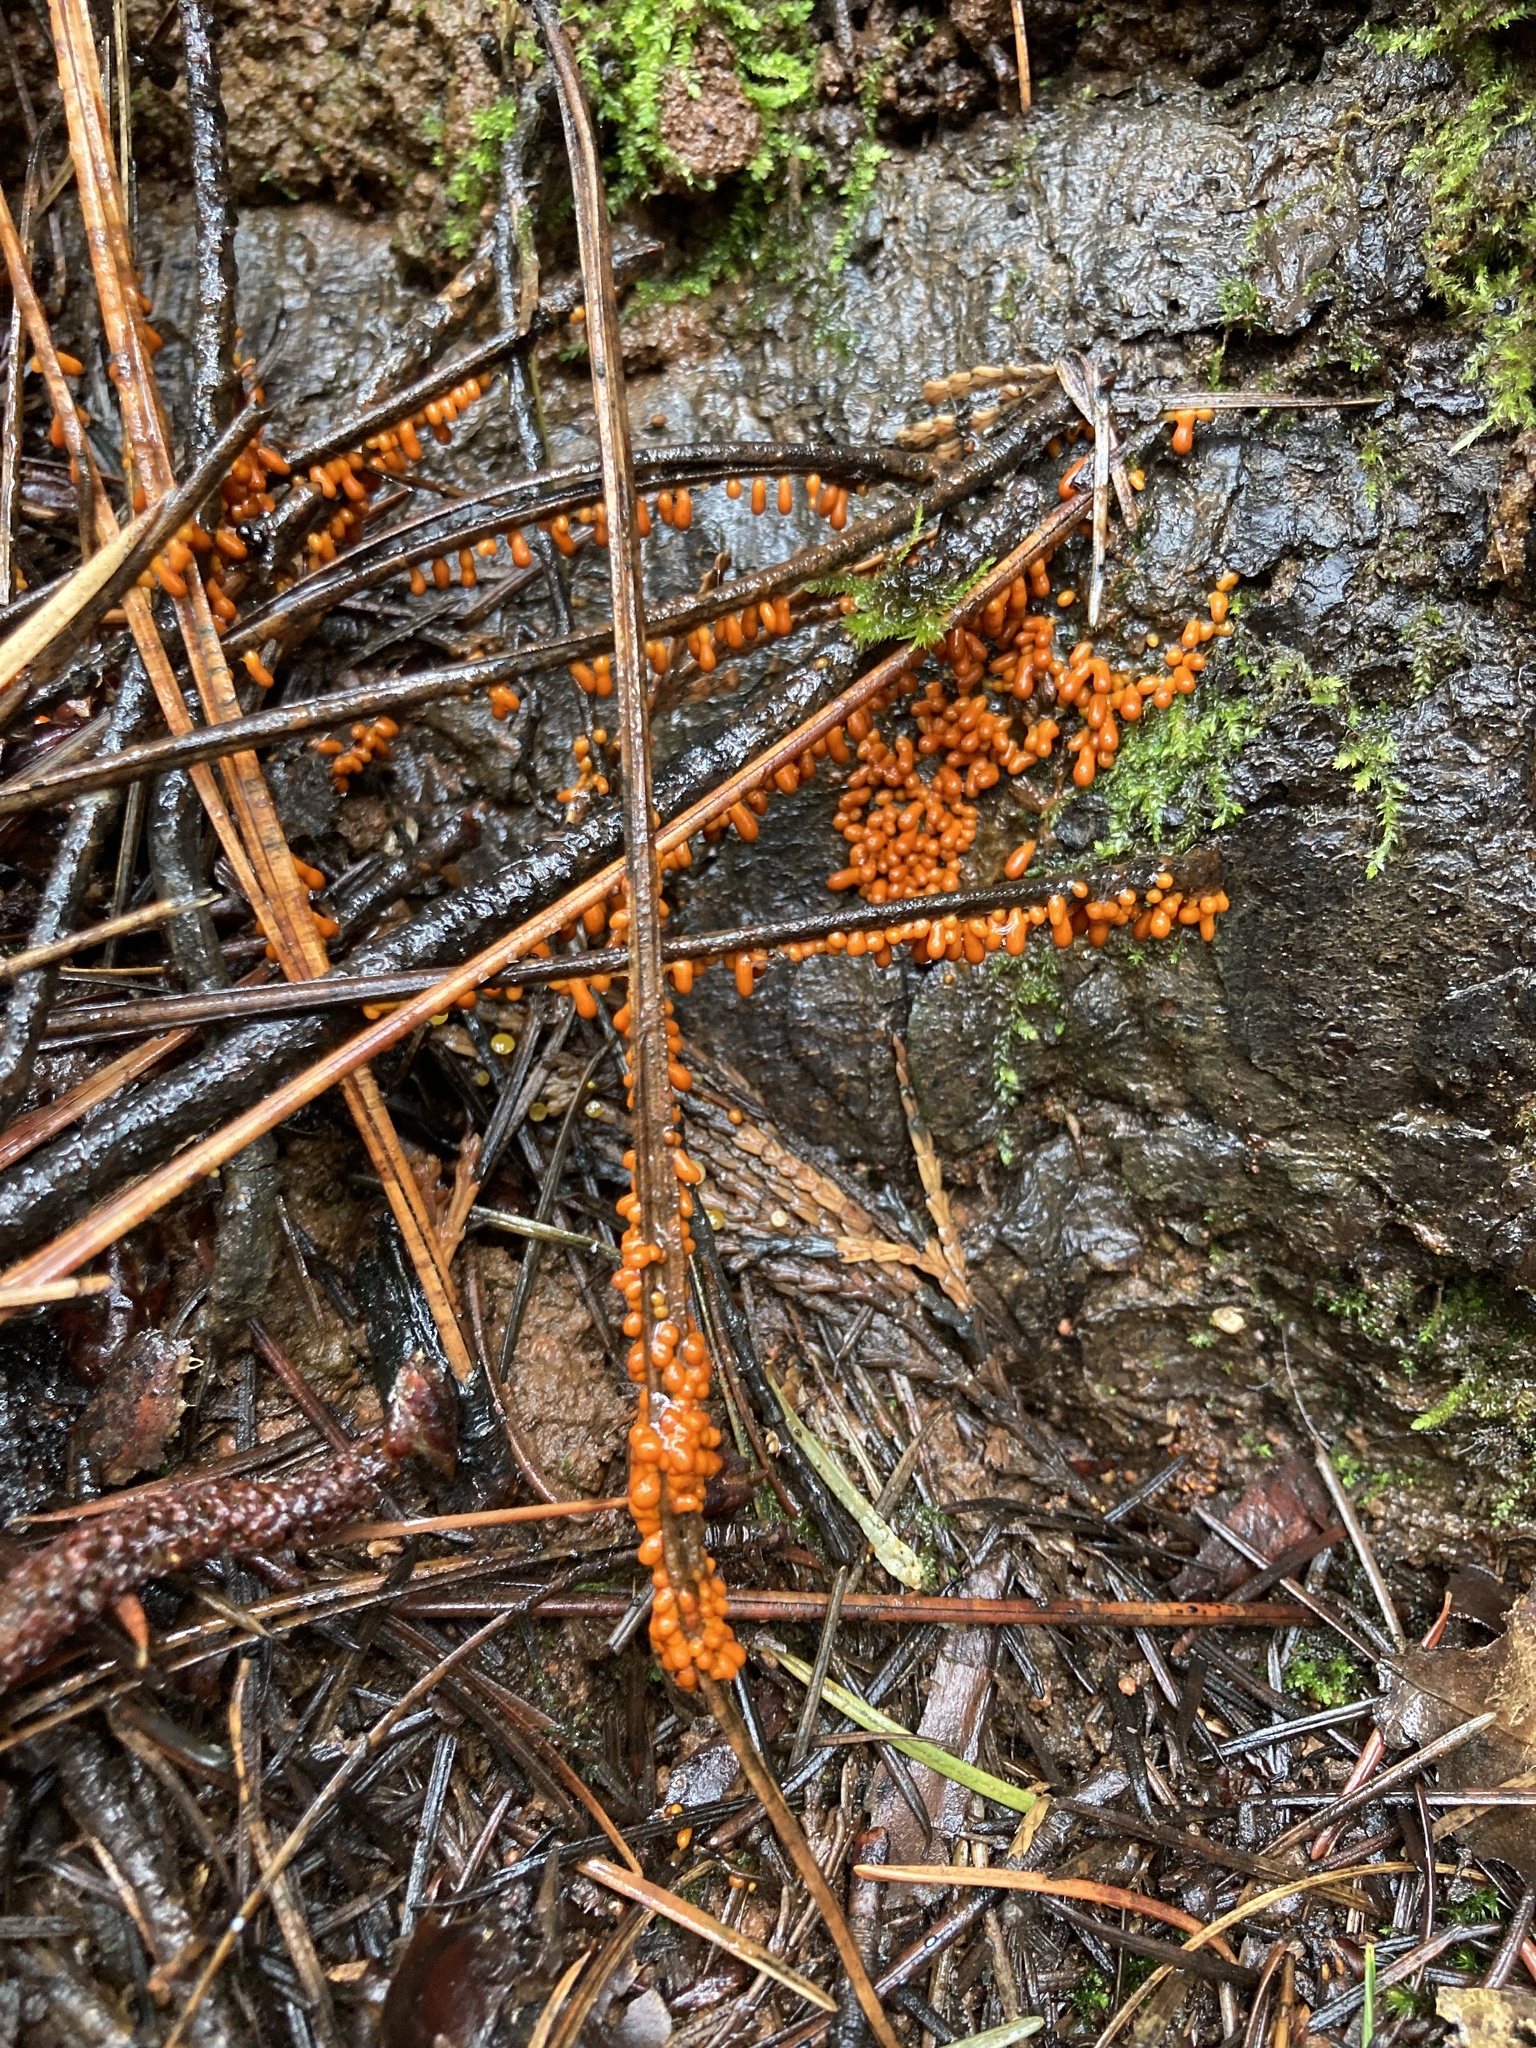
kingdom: Protozoa
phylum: Mycetozoa
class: Myxomycetes
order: Physarales
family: Physaraceae
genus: Leocarpus
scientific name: Leocarpus fragilis
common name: Insect-egg slime
